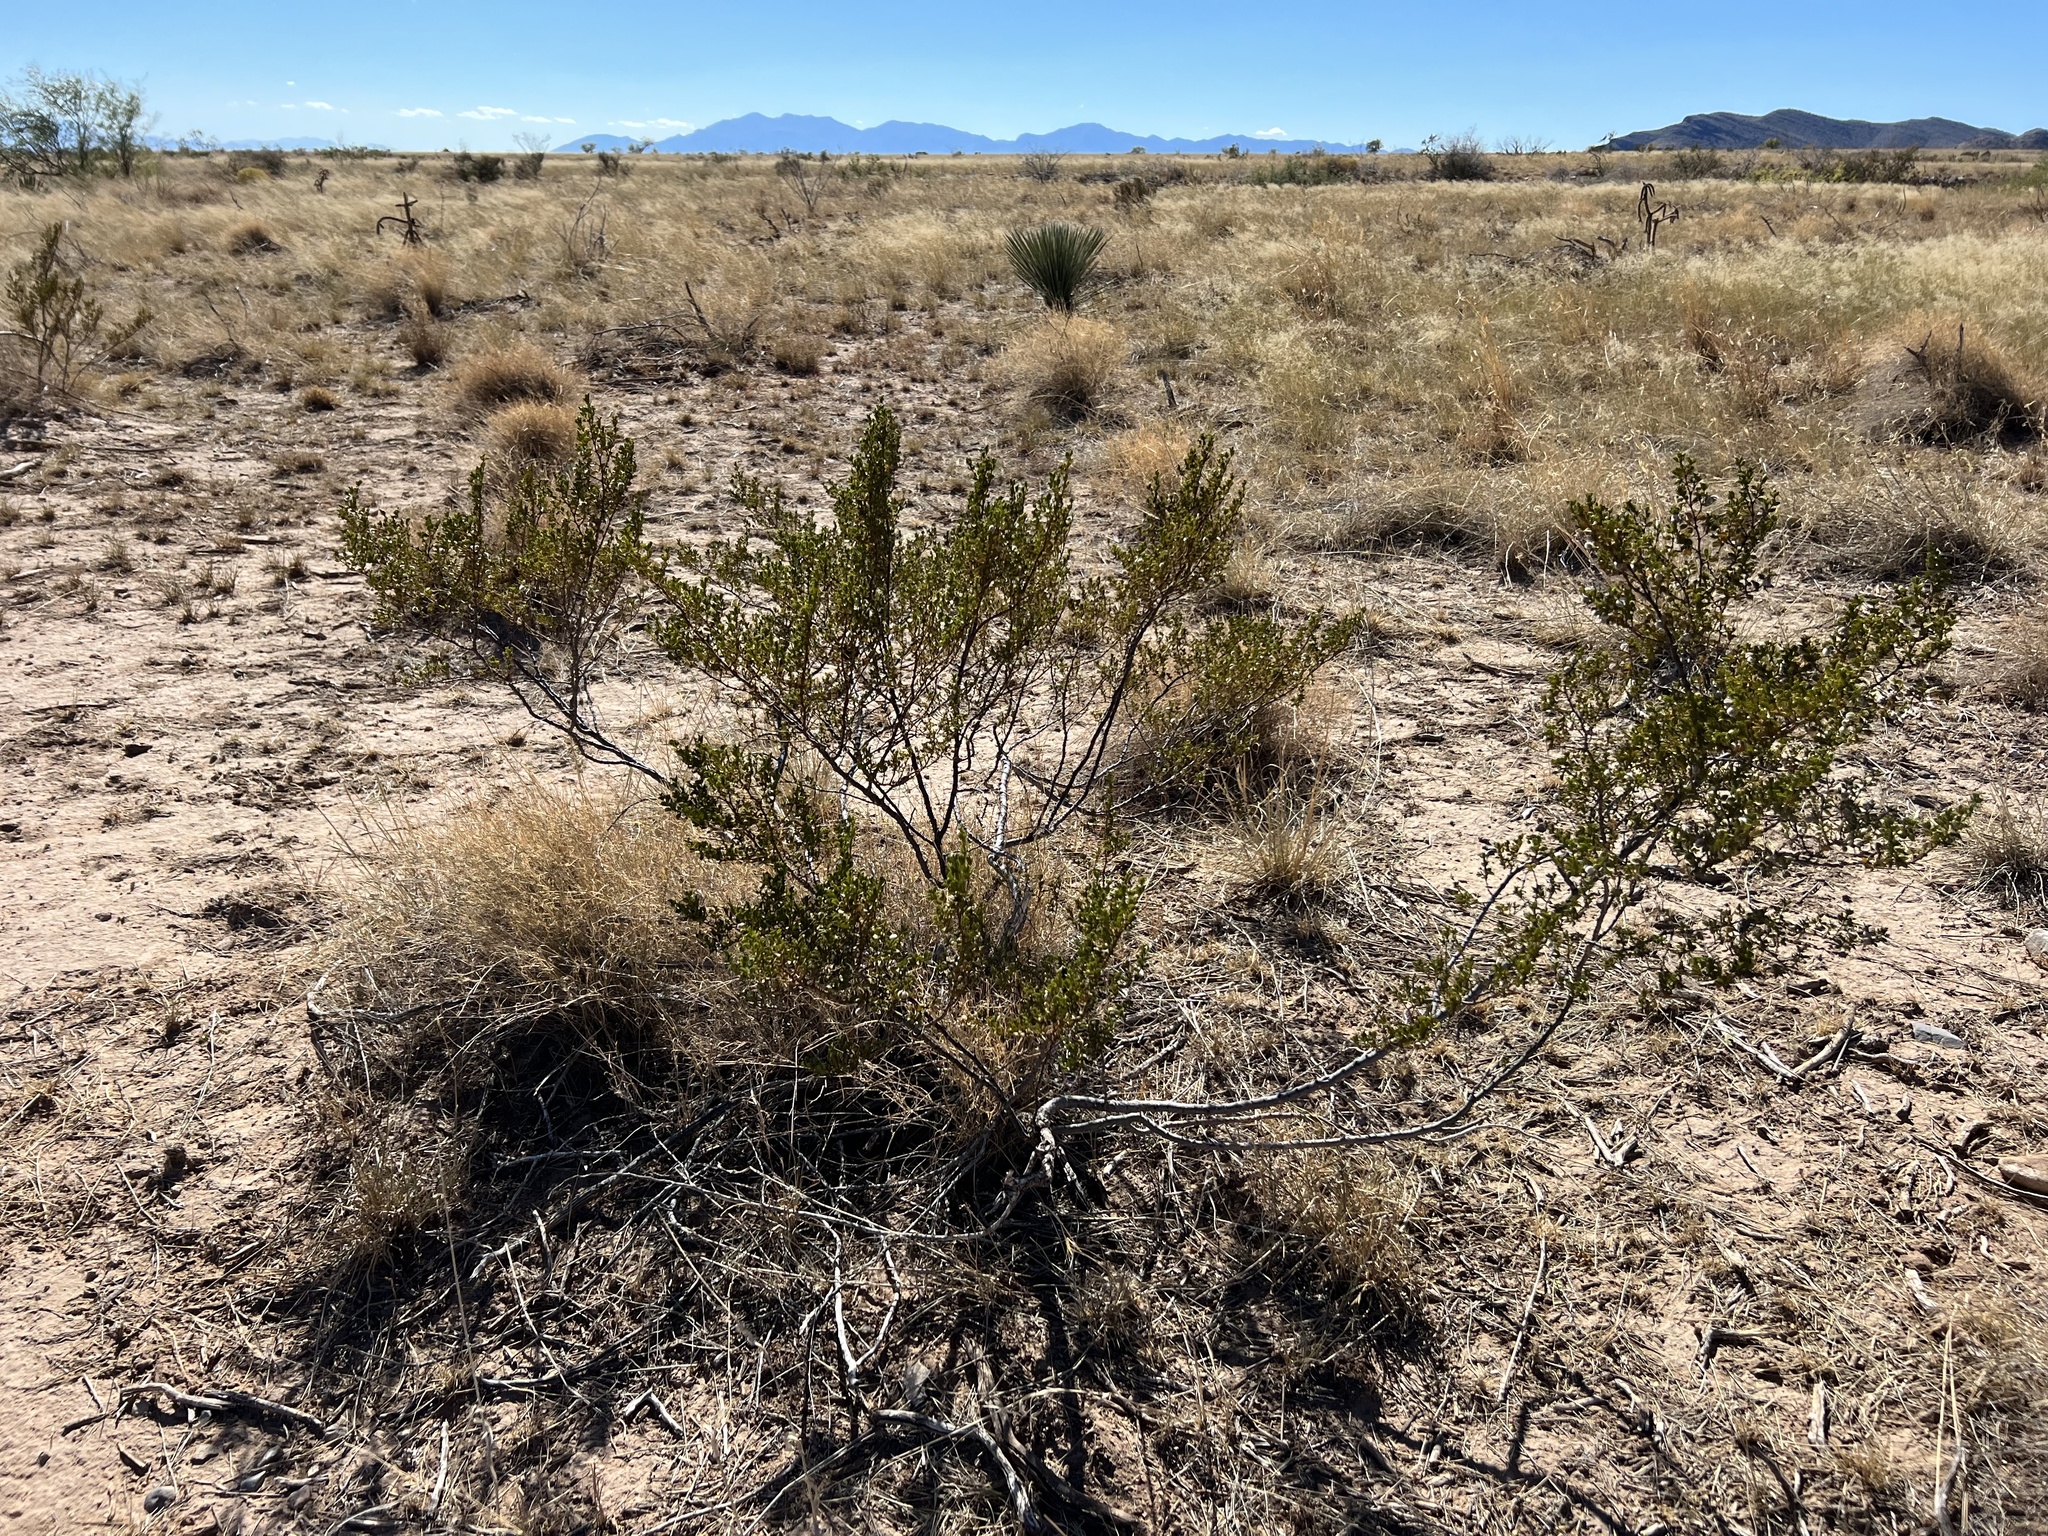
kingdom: Plantae
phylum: Tracheophyta
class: Magnoliopsida
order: Zygophyllales
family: Zygophyllaceae
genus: Larrea
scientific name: Larrea tridentata
